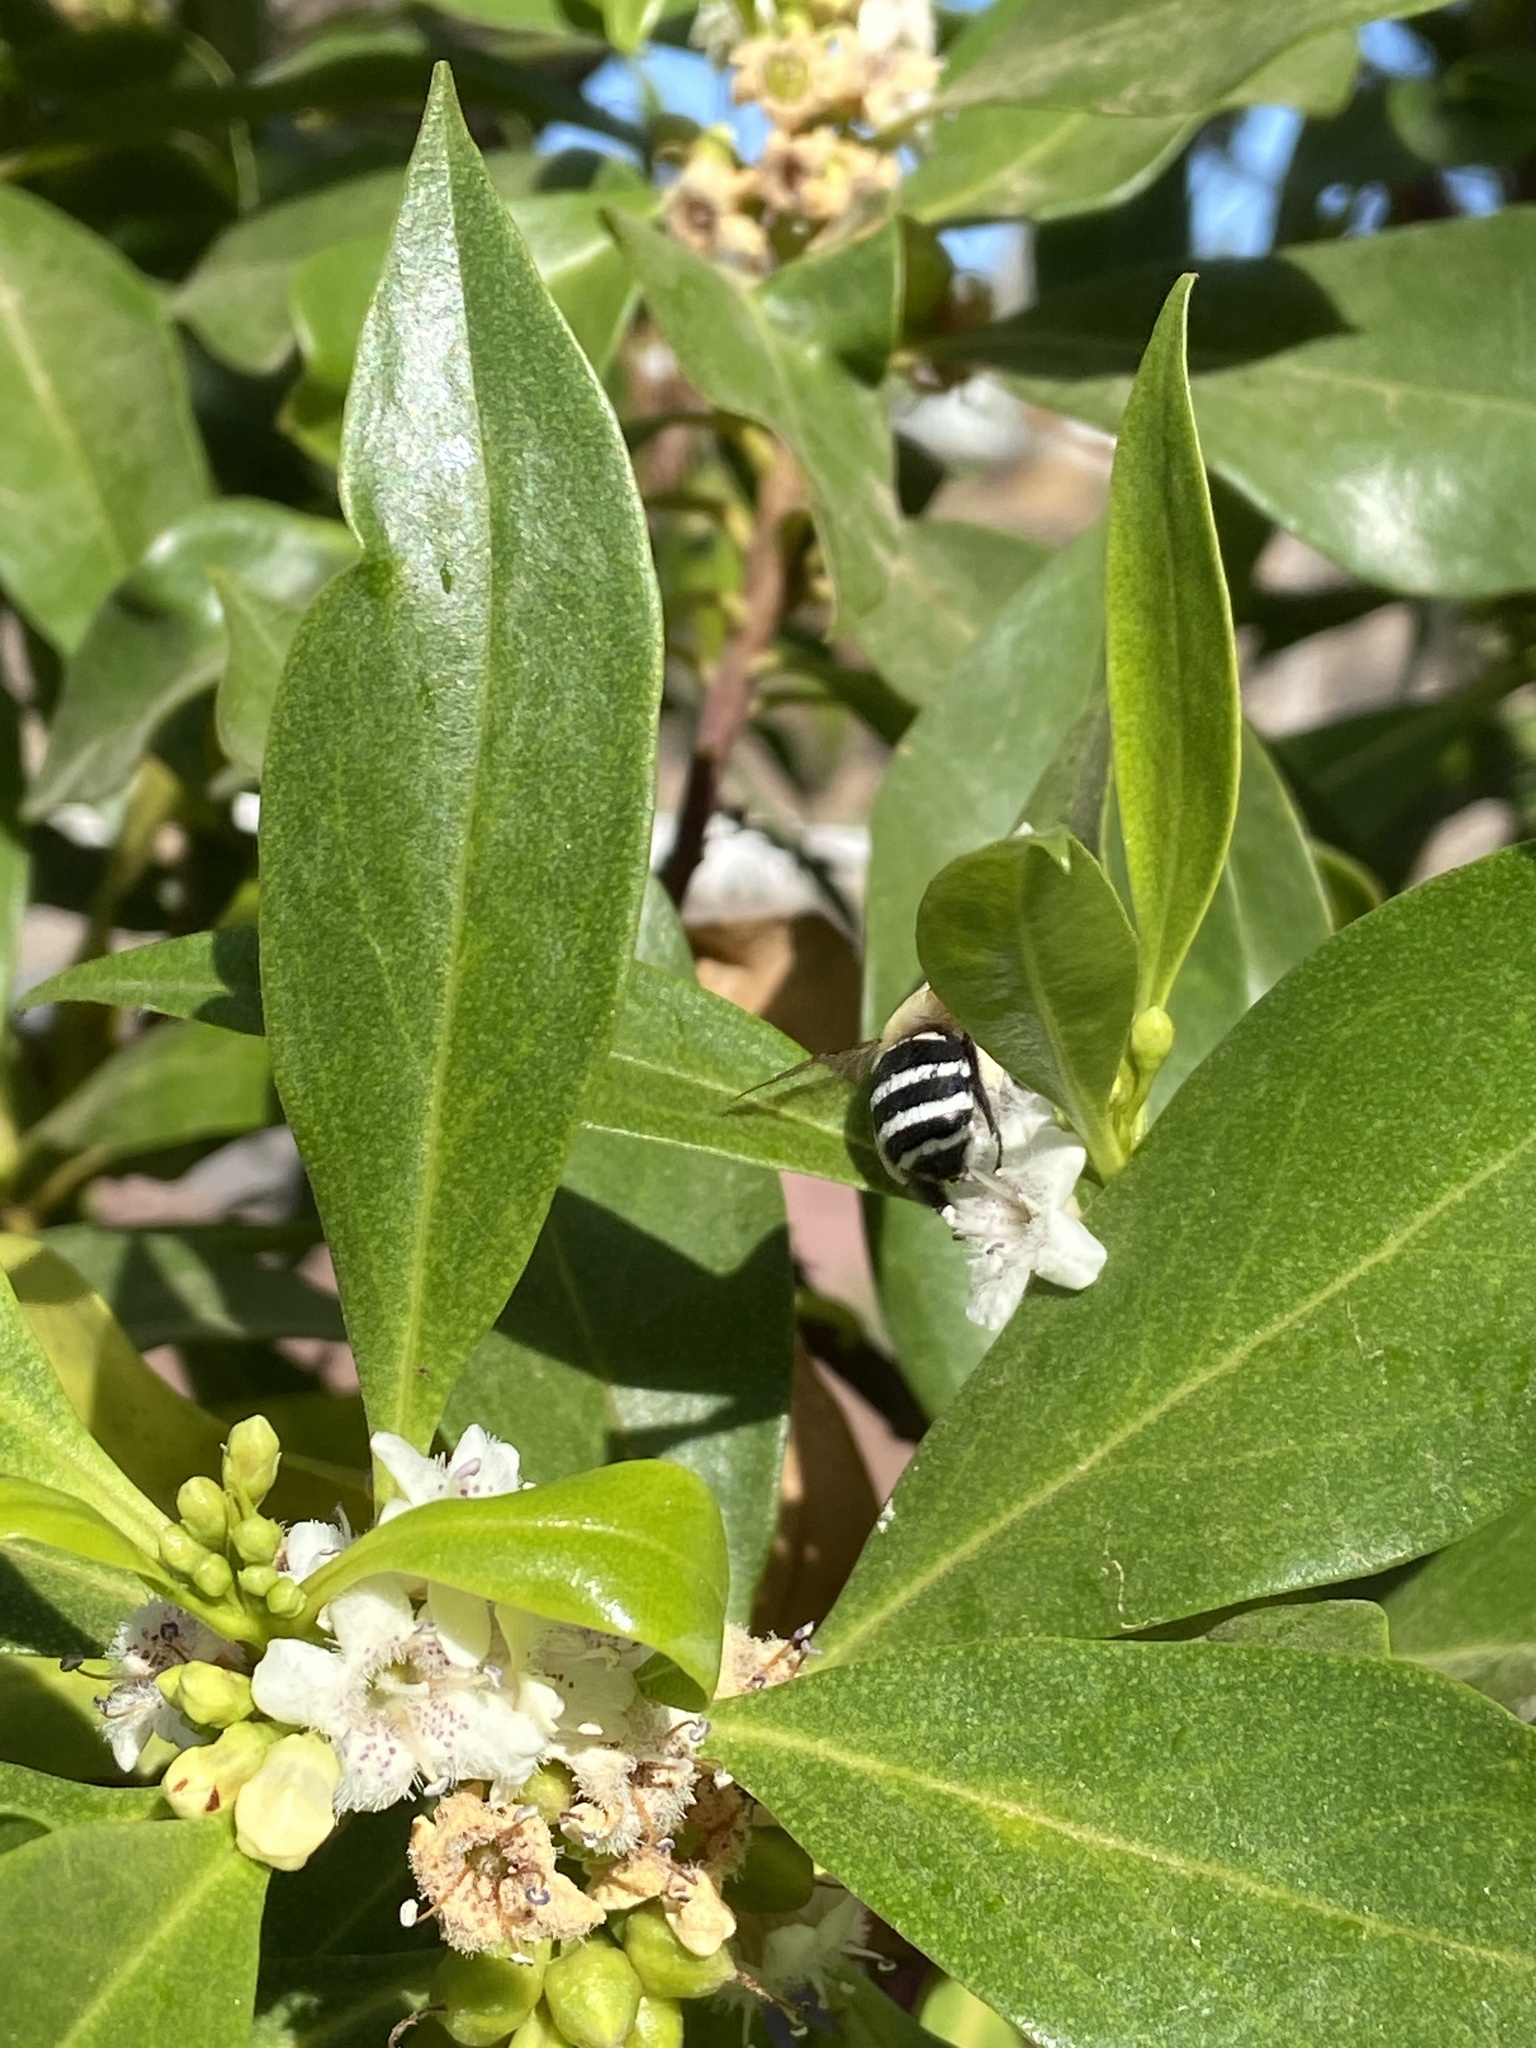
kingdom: Animalia
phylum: Arthropoda
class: Insecta
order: Hymenoptera
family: Apidae
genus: Amegilla
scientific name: Amegilla quadrifasciata
